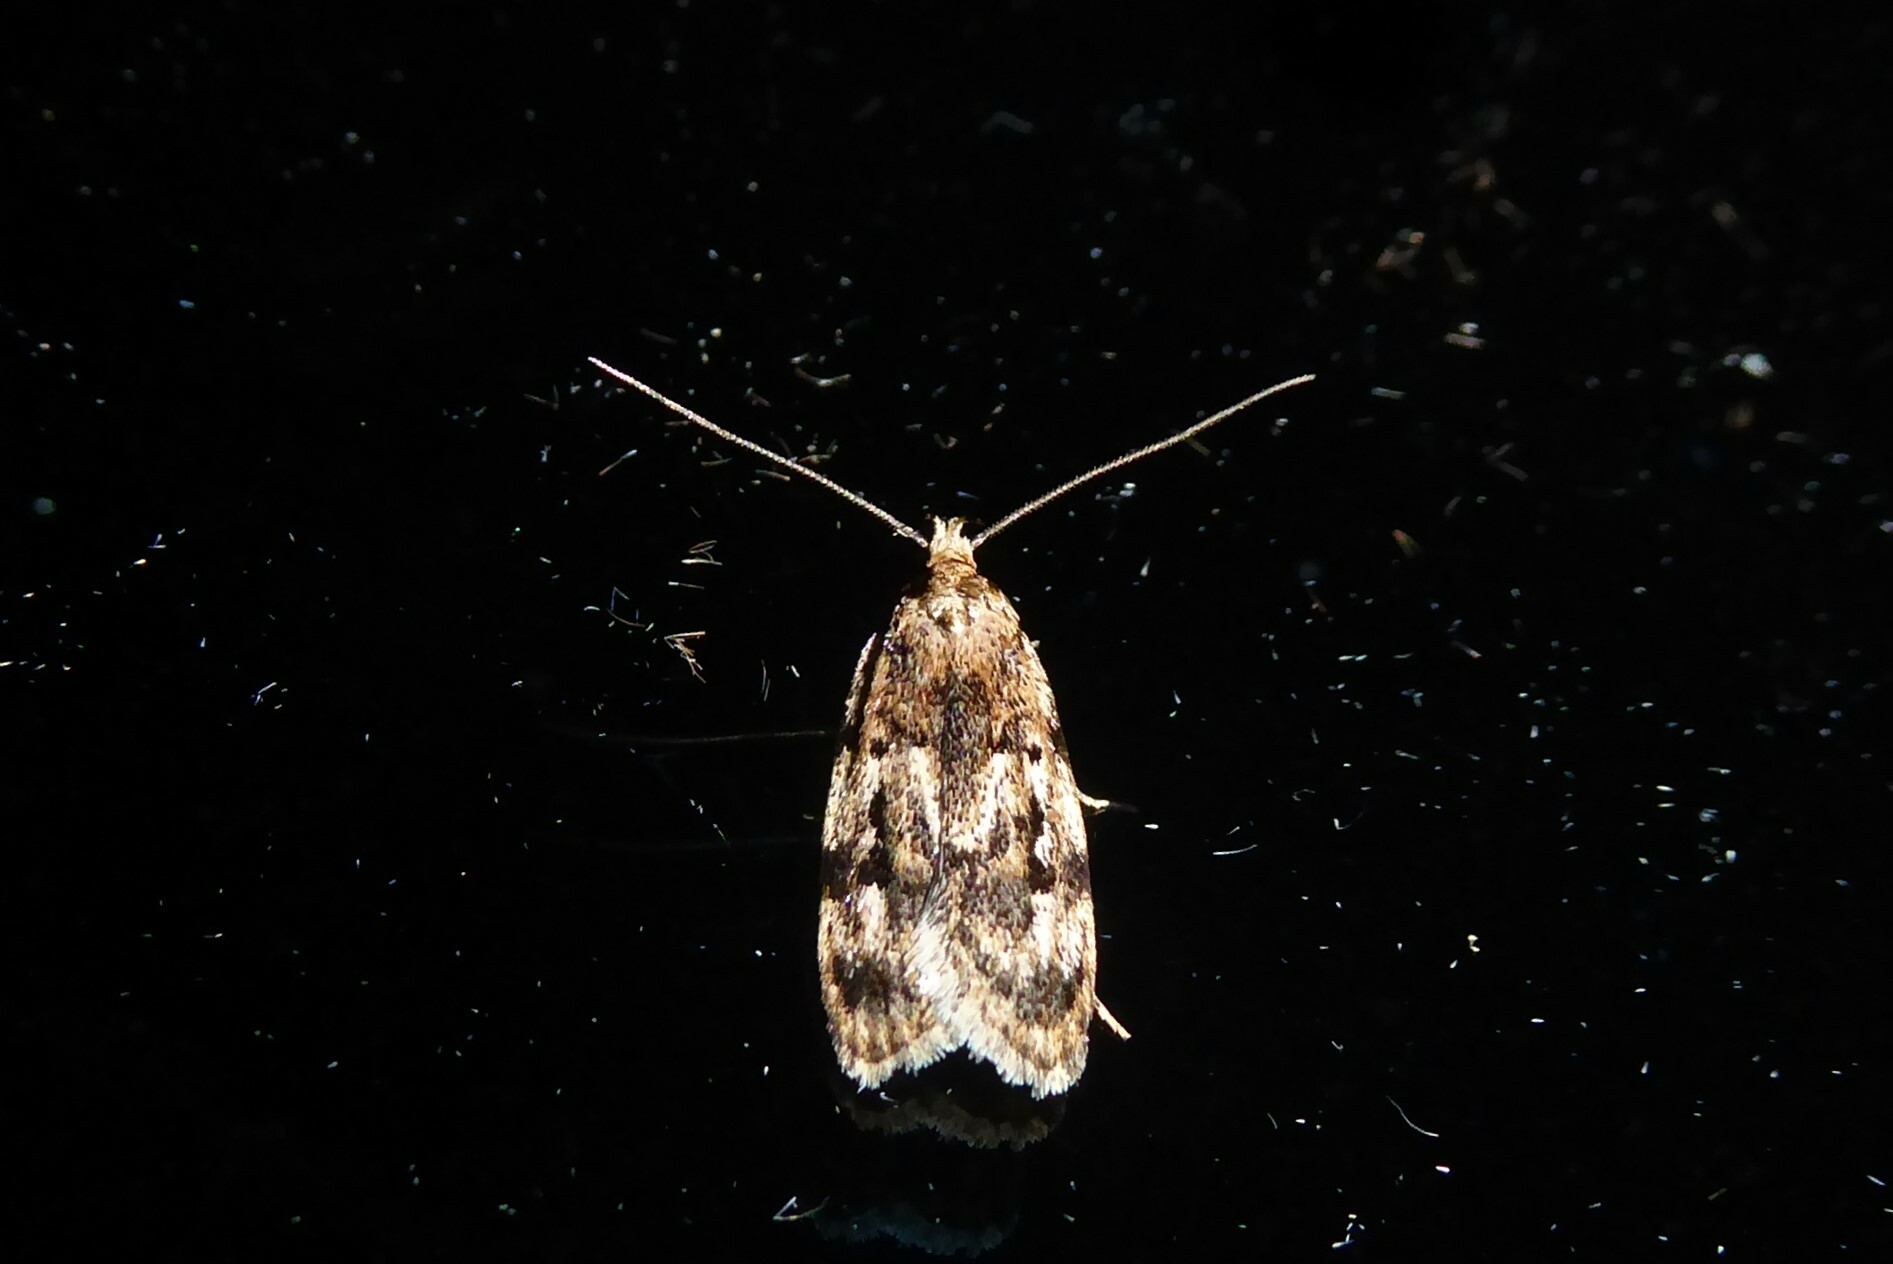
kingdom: Animalia
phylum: Arthropoda
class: Insecta
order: Lepidoptera
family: Oecophoridae
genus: Barea
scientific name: Barea exarcha
